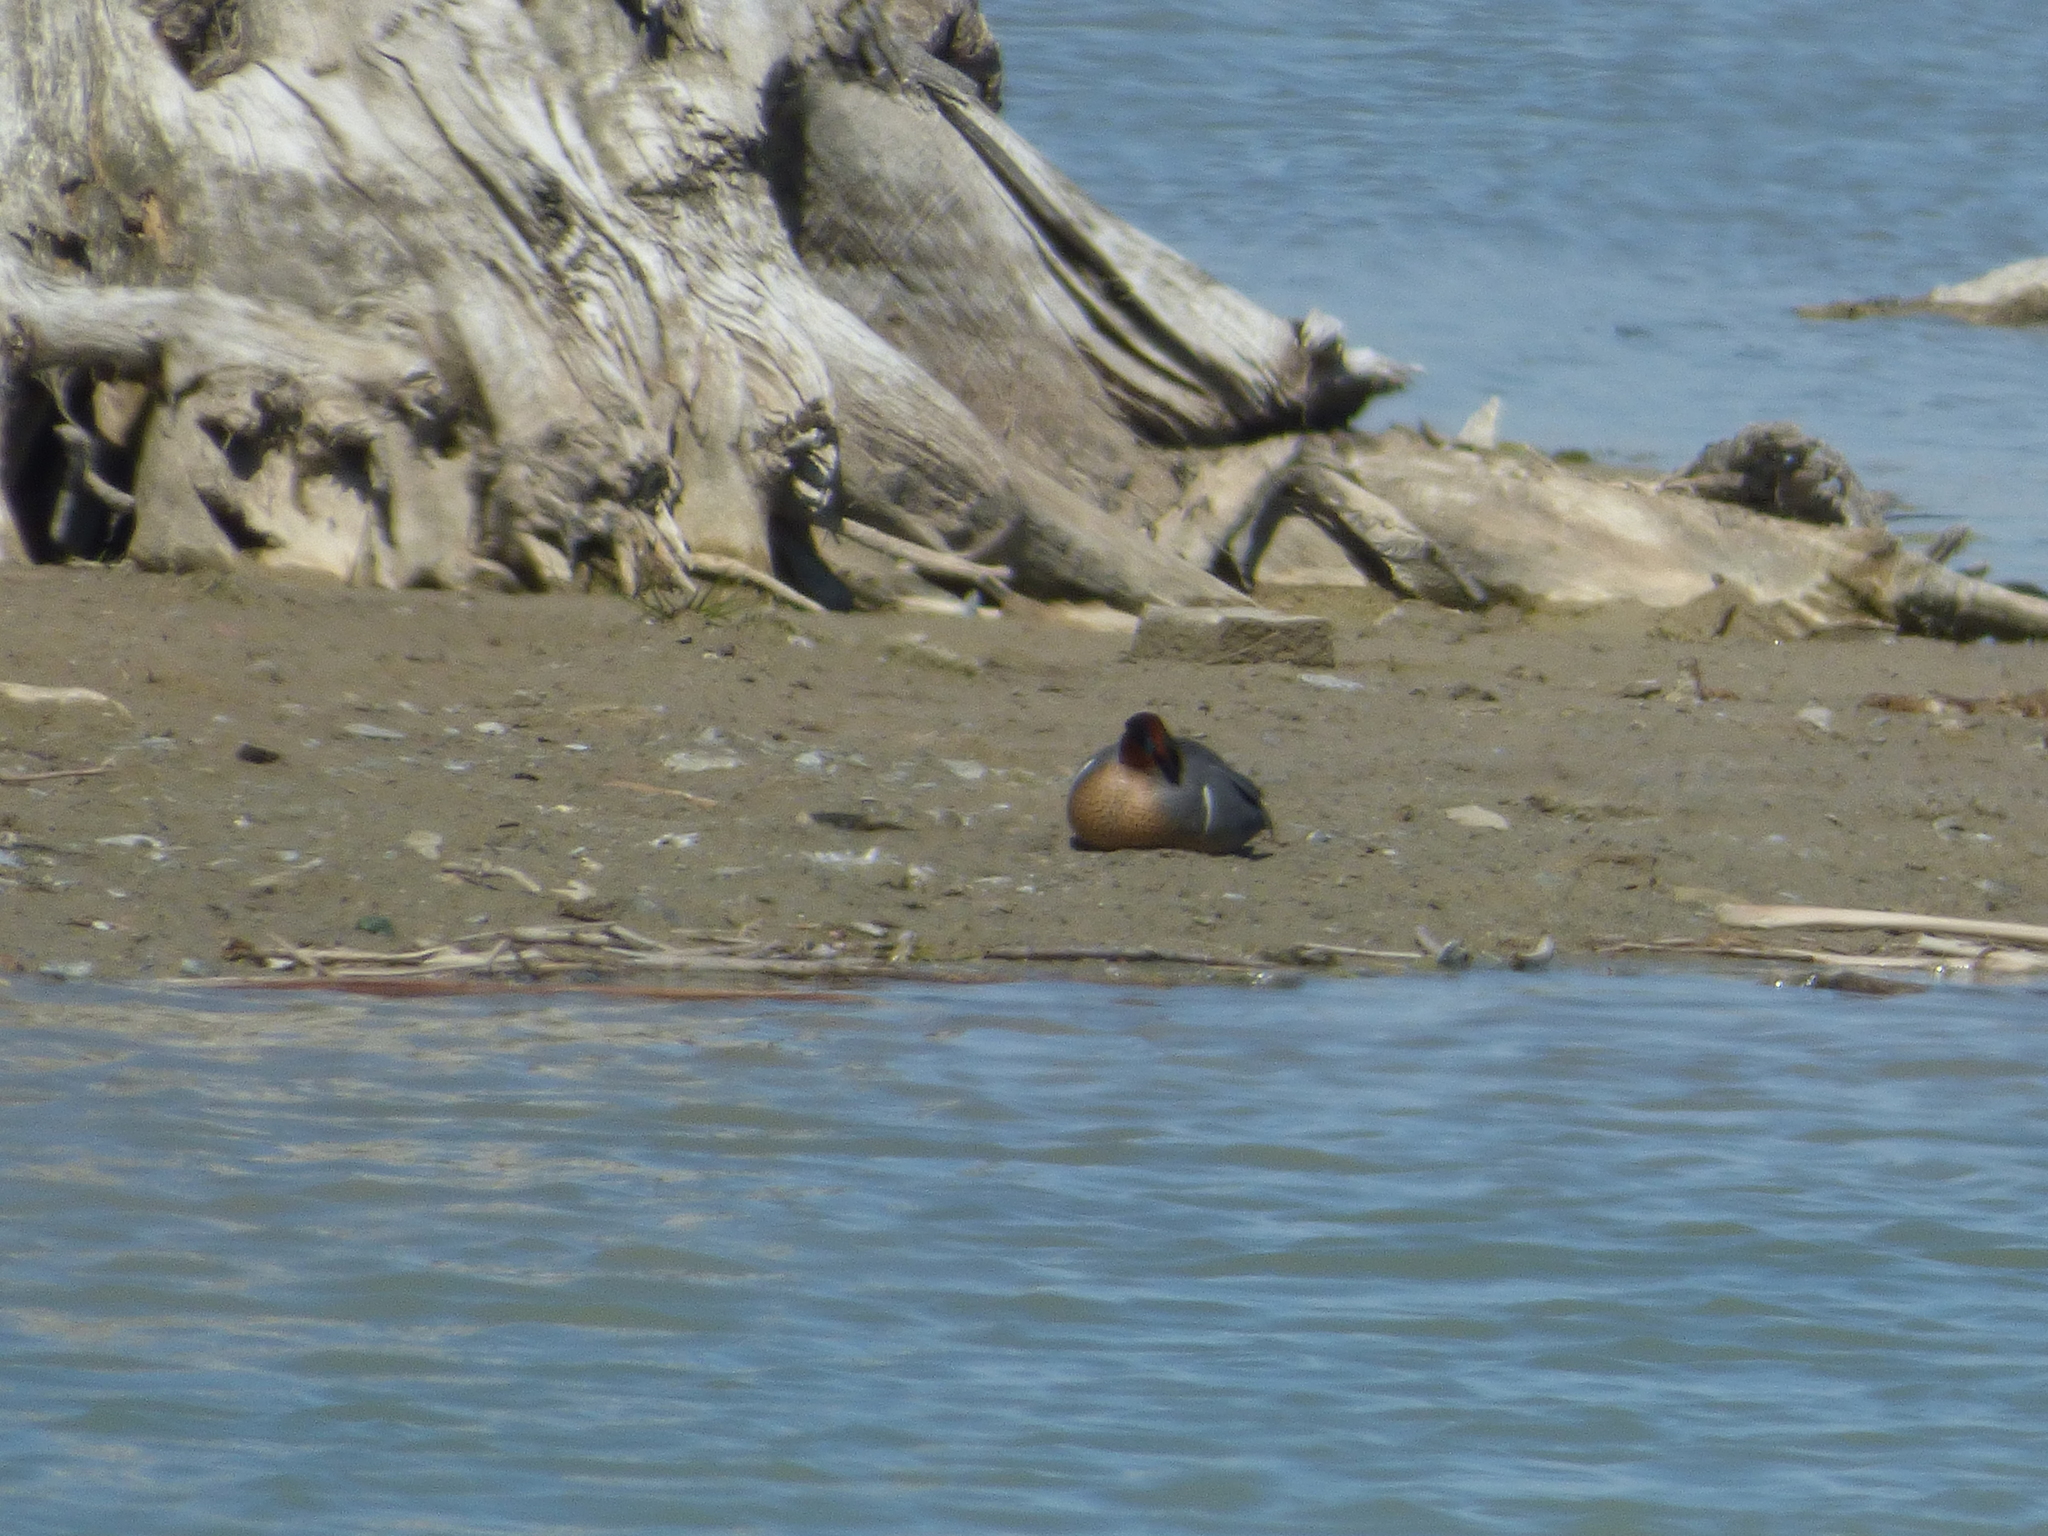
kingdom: Animalia
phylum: Chordata
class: Aves
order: Anseriformes
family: Anatidae
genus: Anas
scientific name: Anas carolinensis
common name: Green-winged teal
